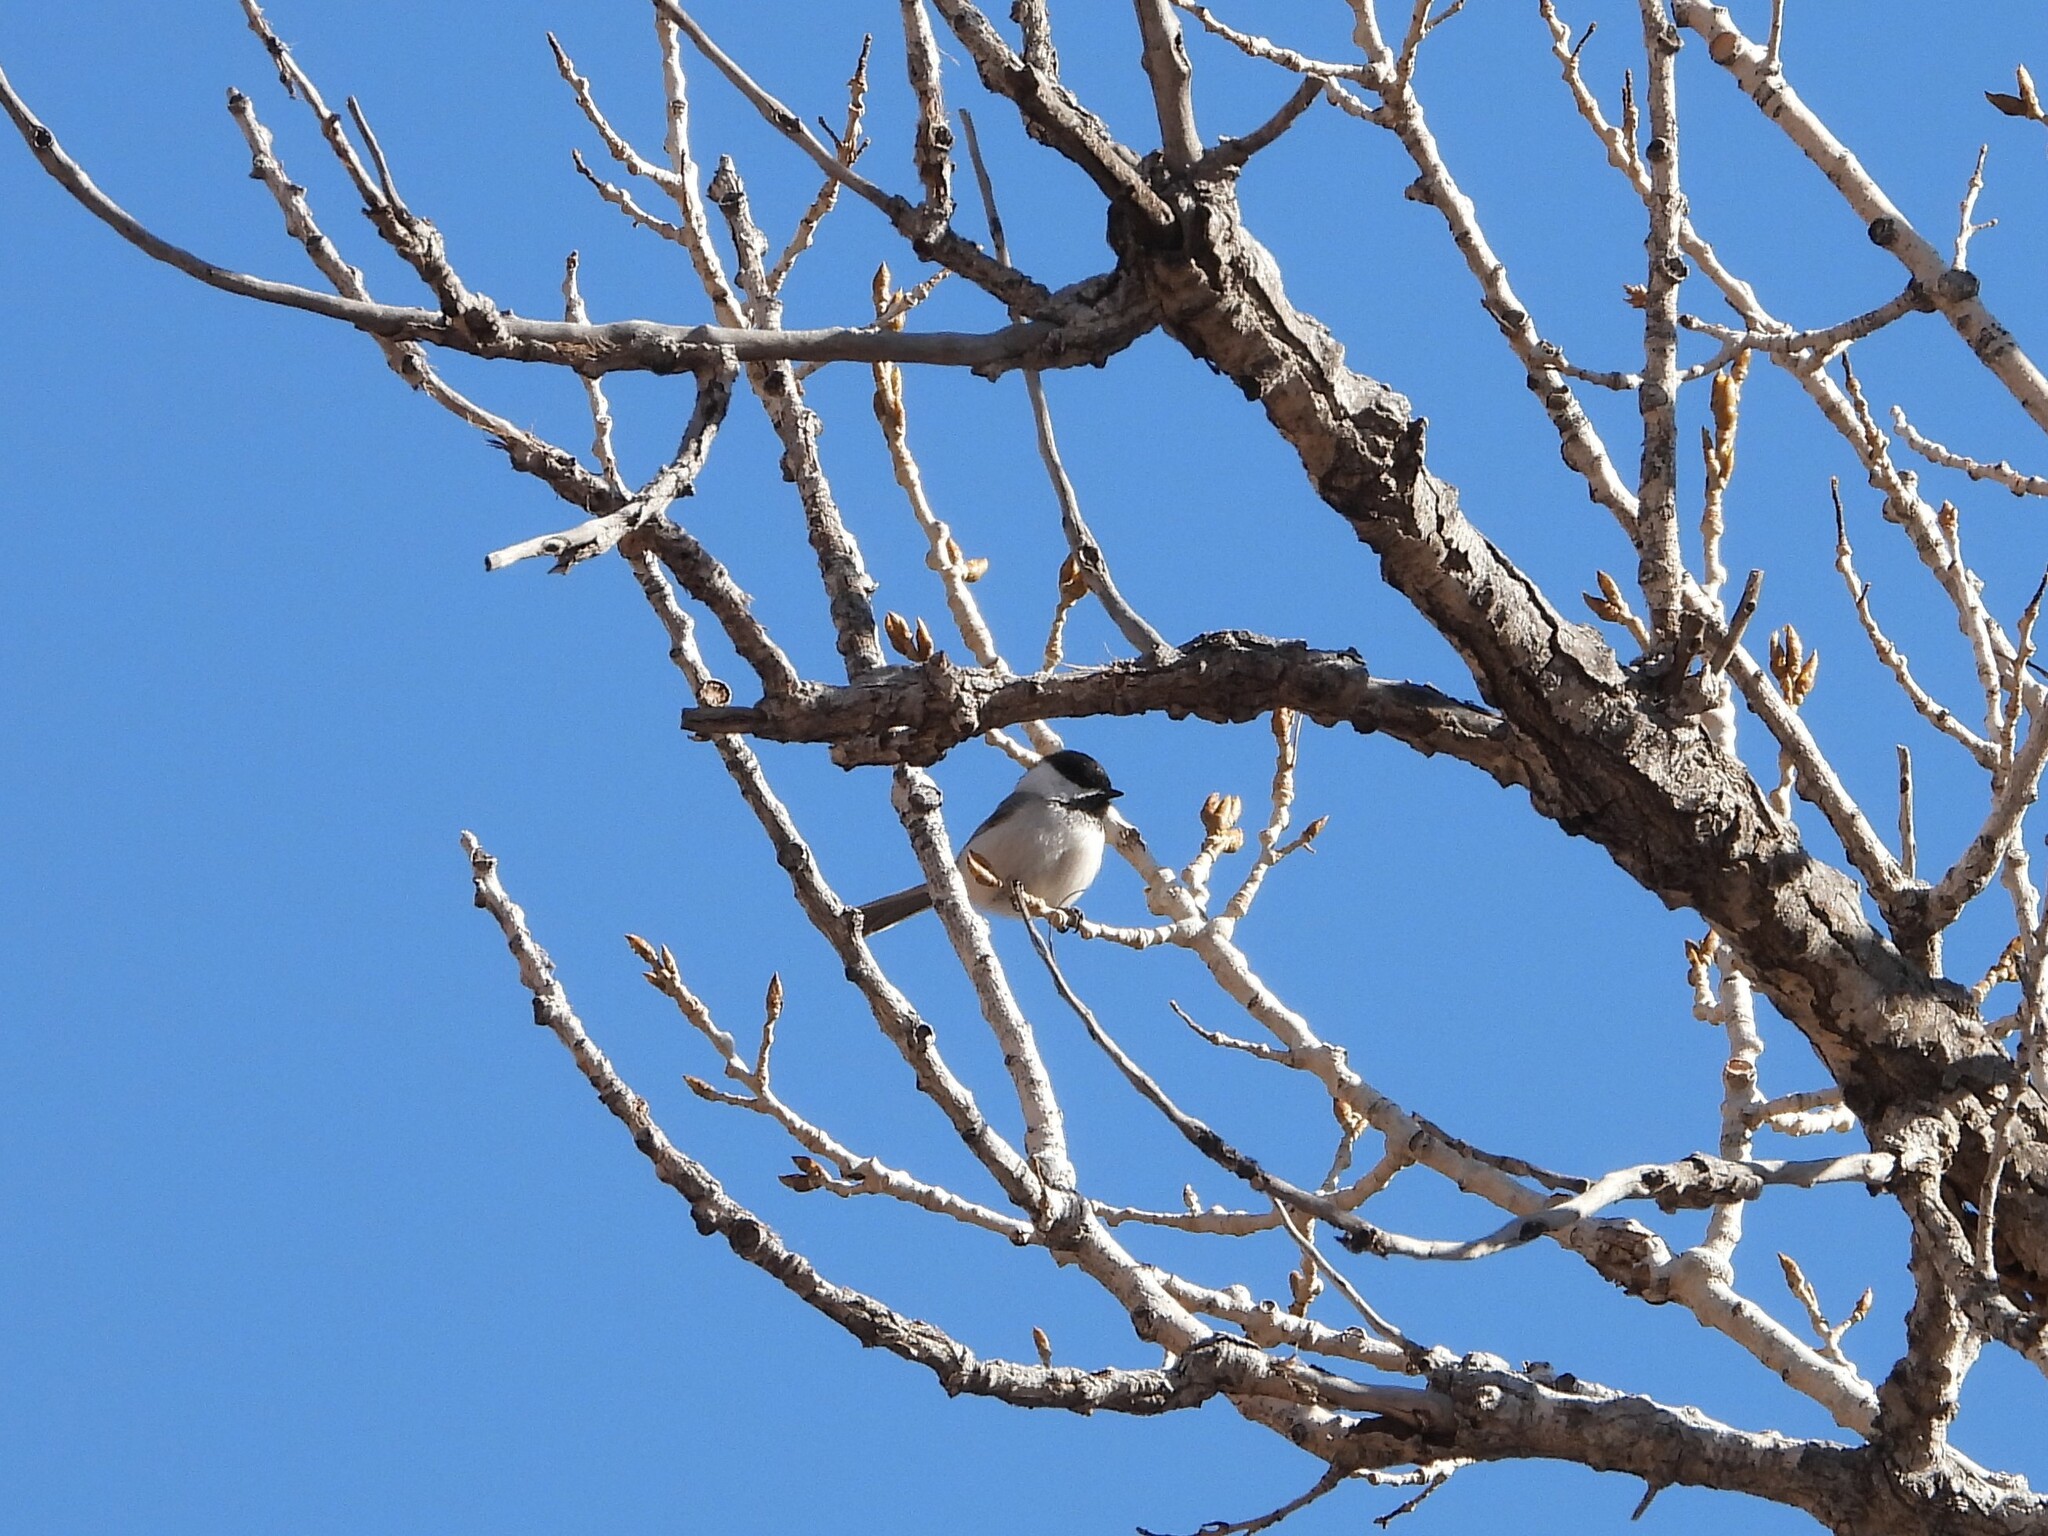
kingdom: Animalia
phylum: Chordata
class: Aves
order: Passeriformes
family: Paridae
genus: Poecile
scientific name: Poecile atricapillus
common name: Black-capped chickadee
